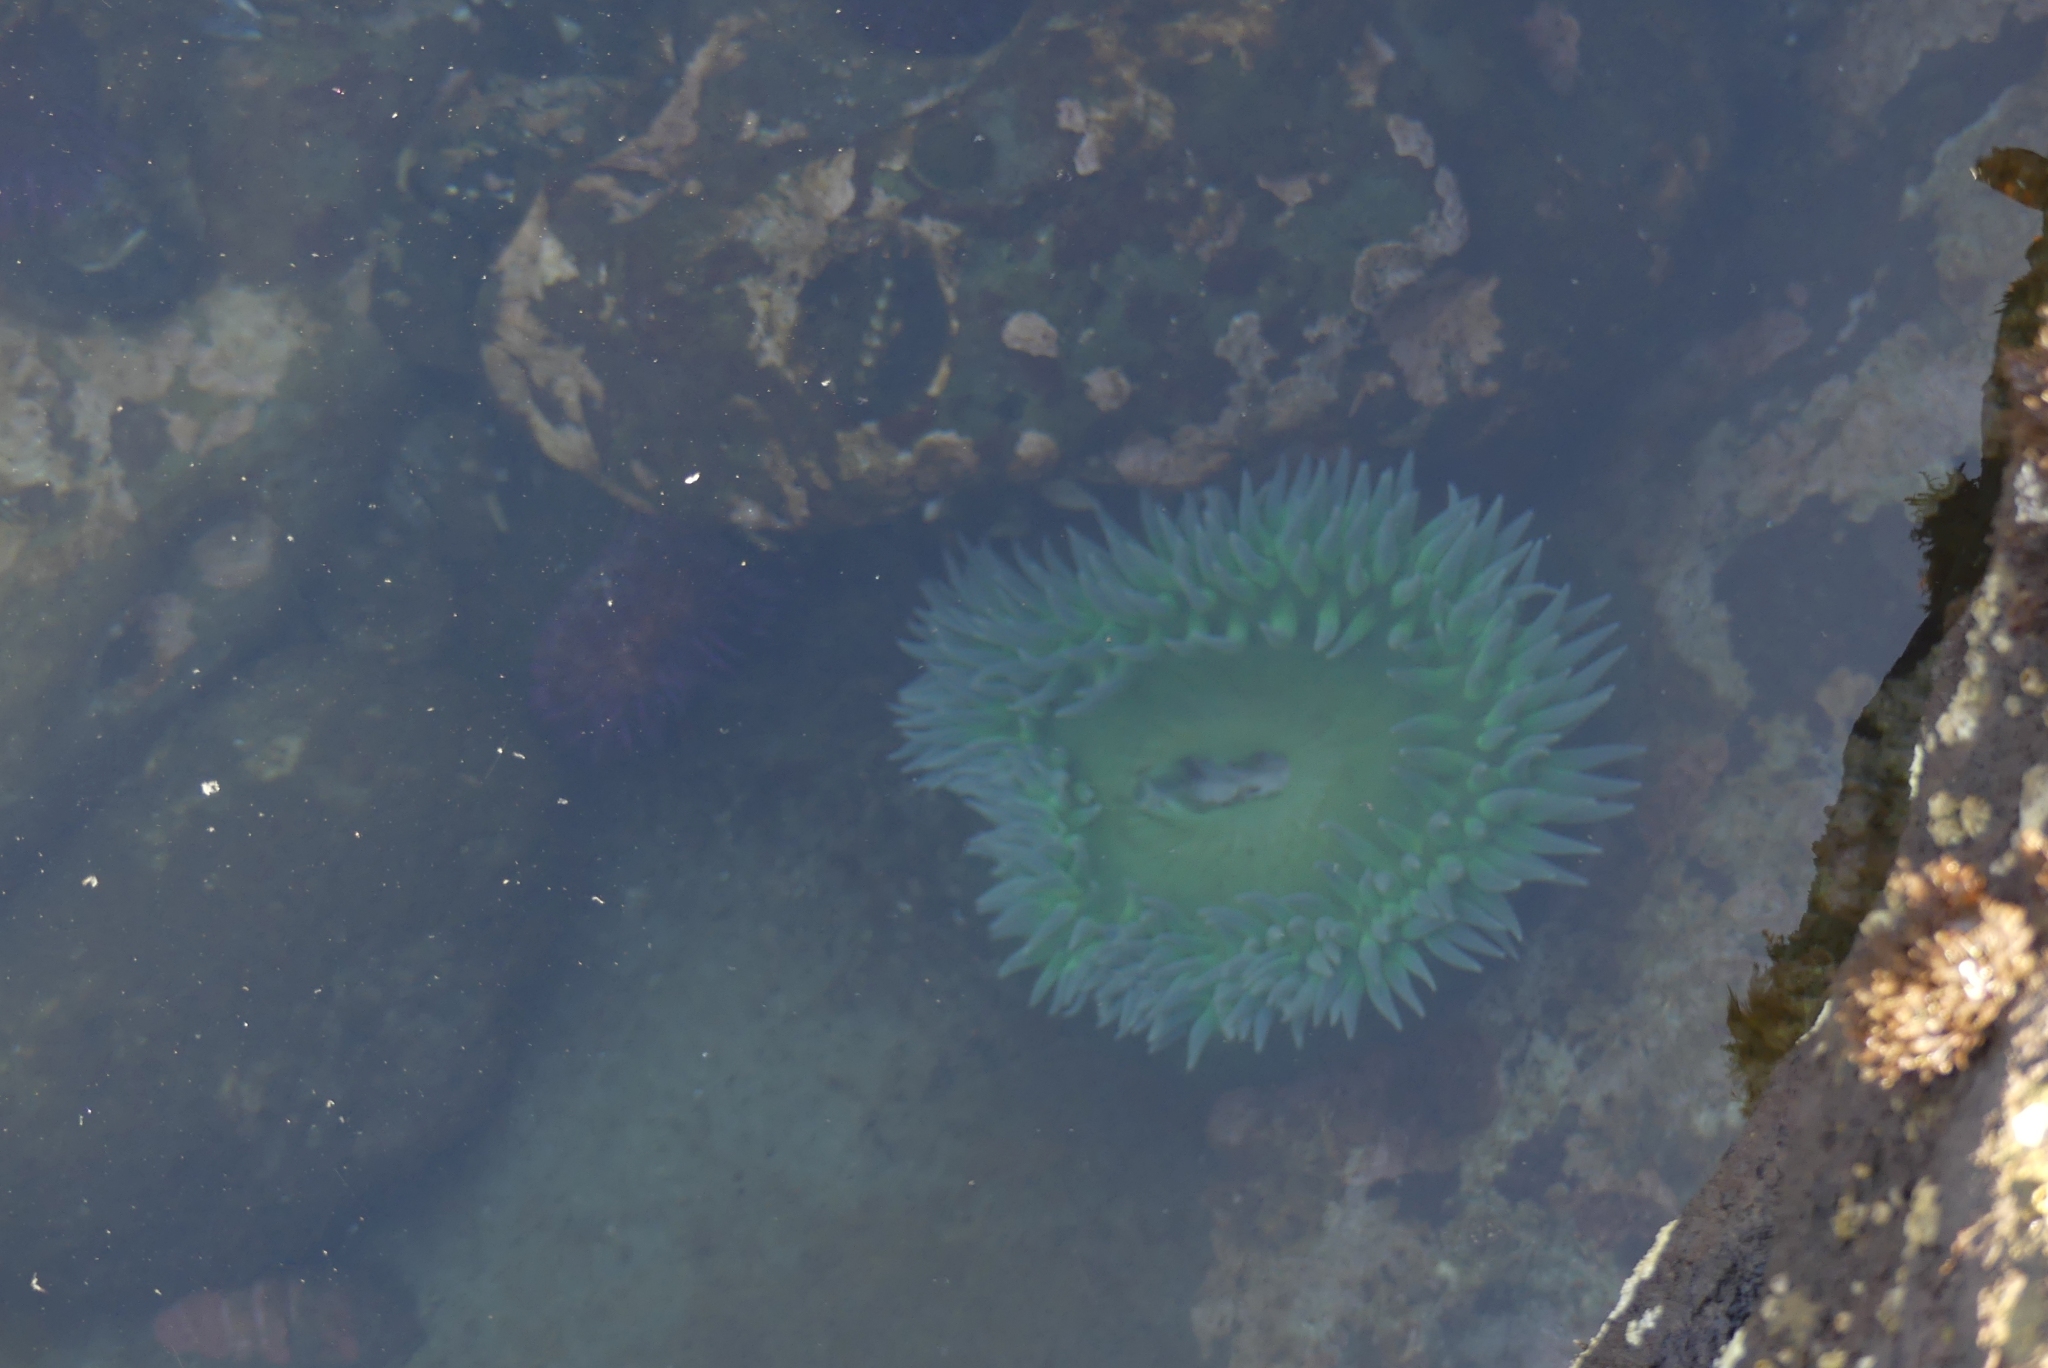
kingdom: Animalia
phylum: Cnidaria
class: Anthozoa
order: Actiniaria
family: Actiniidae
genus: Anthopleura
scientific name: Anthopleura xanthogrammica
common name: Giant green anemone
